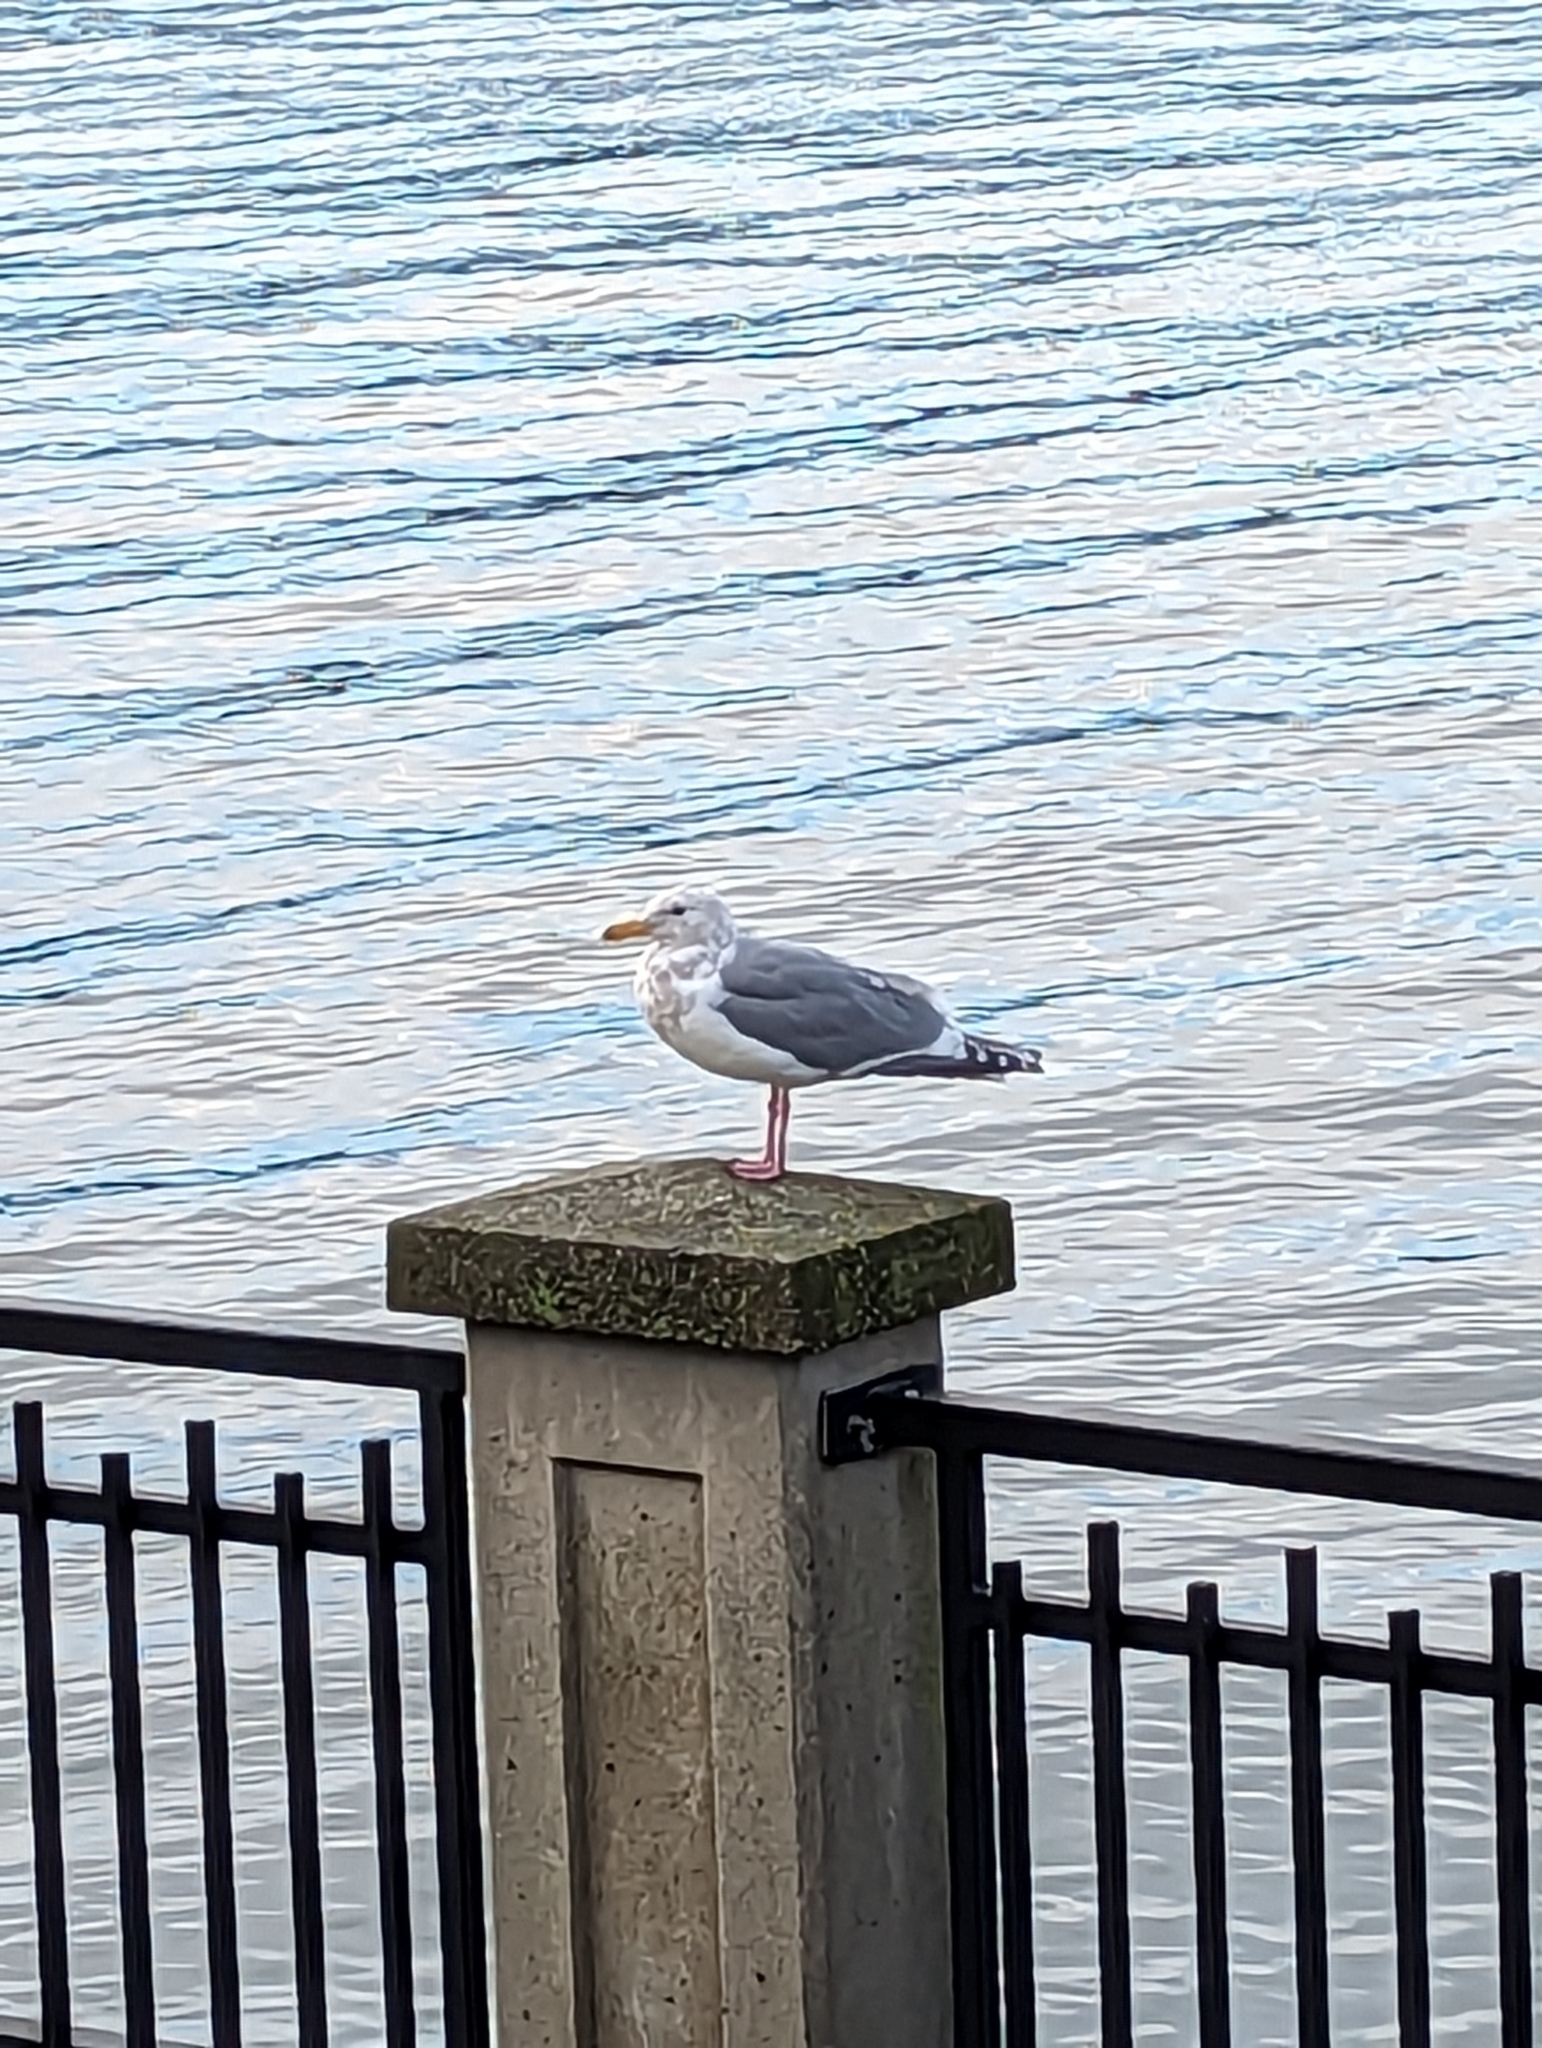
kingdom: Animalia
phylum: Chordata
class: Aves
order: Charadriiformes
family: Laridae
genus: Larus
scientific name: Larus
